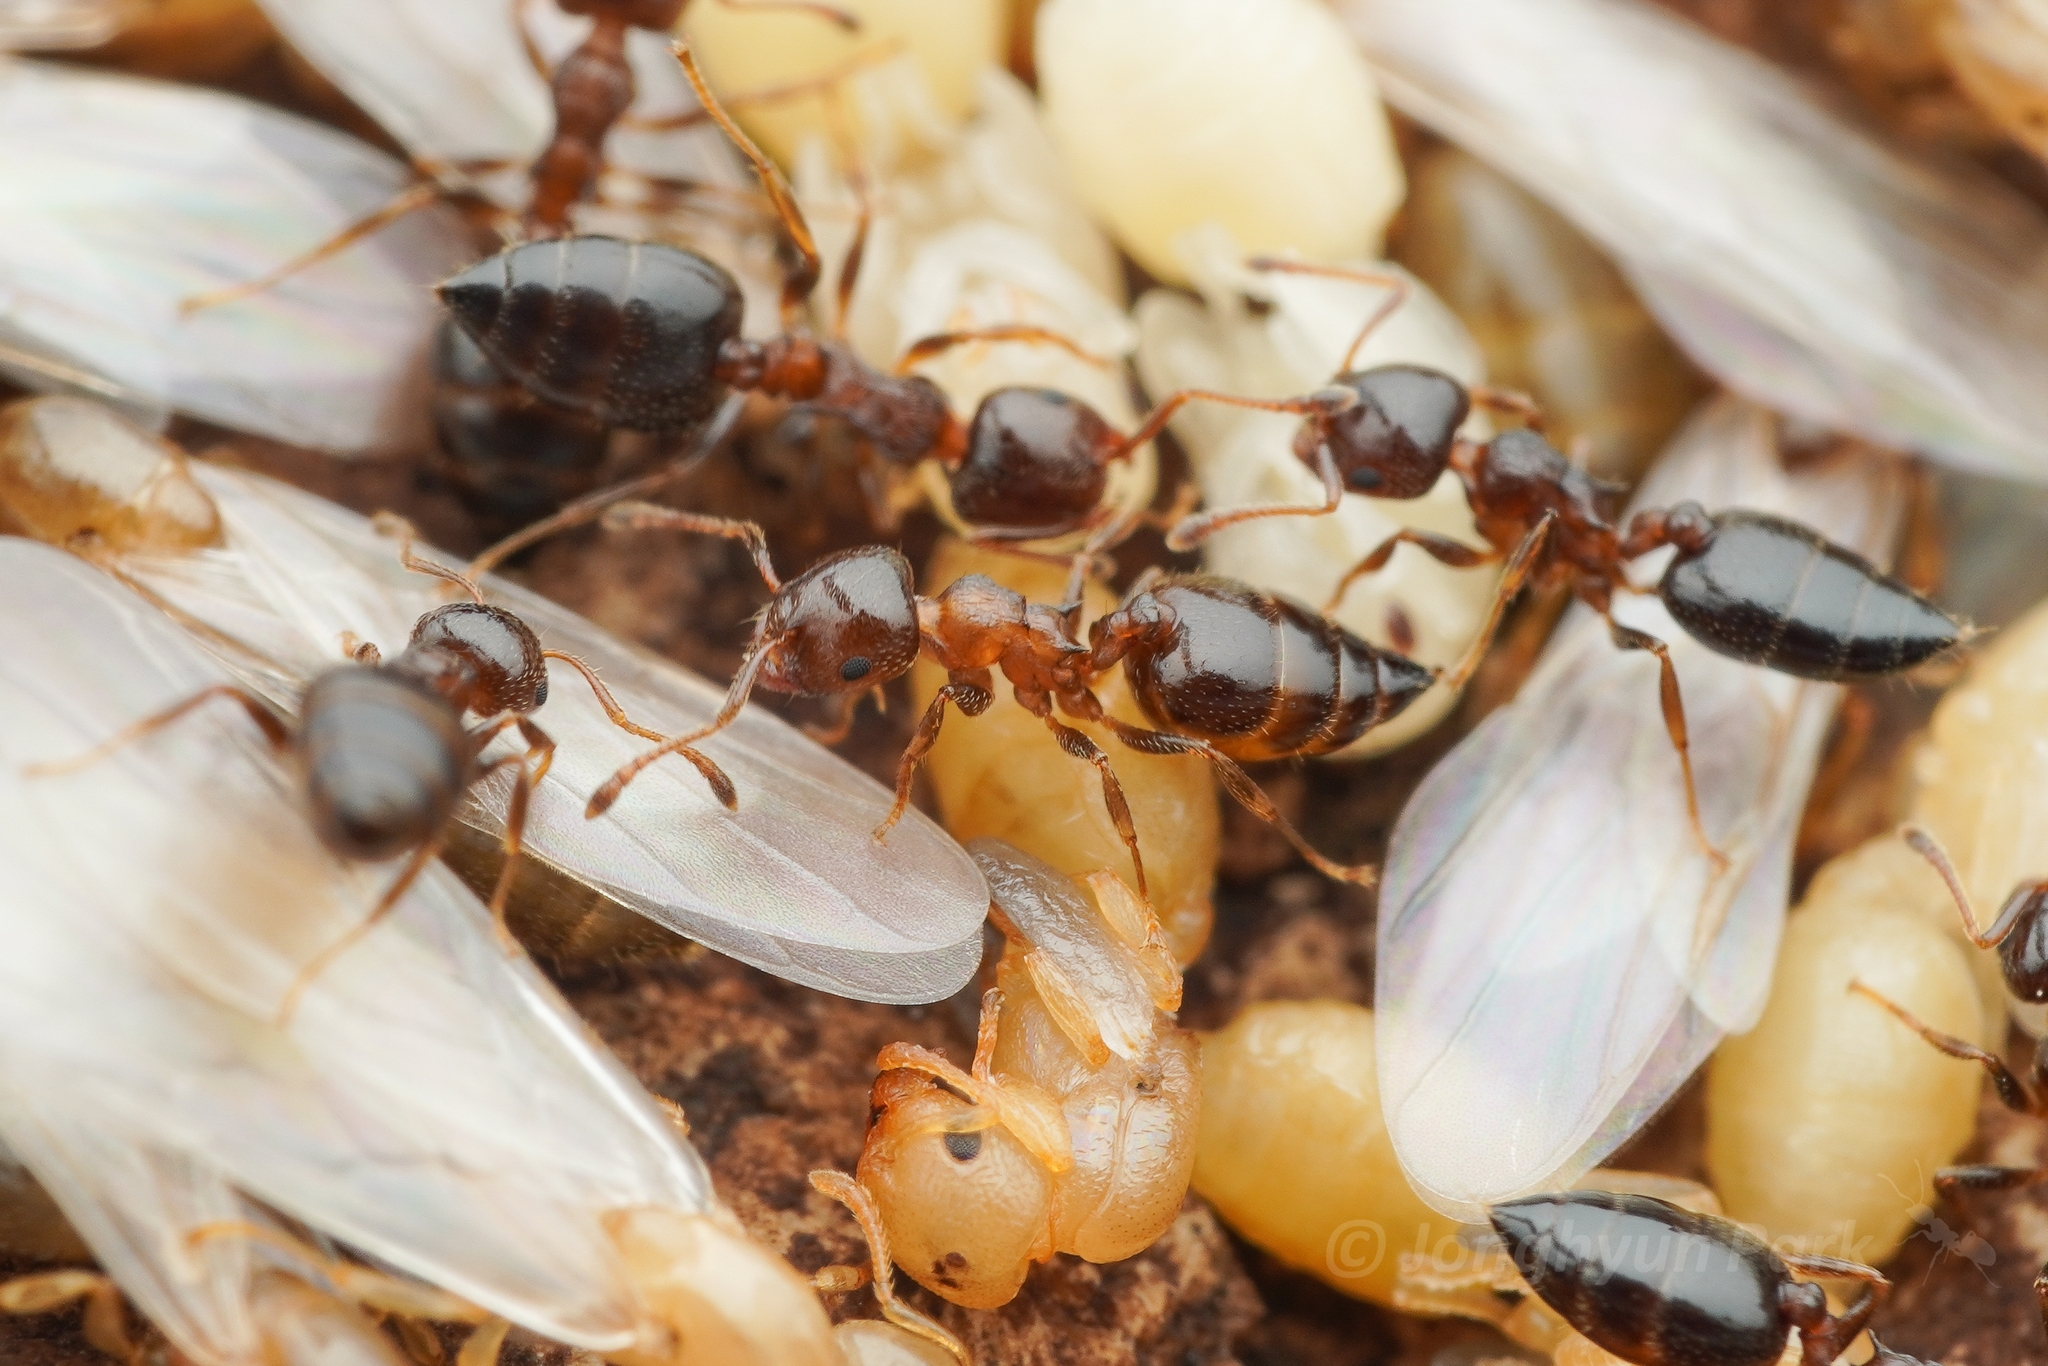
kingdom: Animalia
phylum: Arthropoda
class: Insecta
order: Hymenoptera
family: Formicidae
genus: Crematogaster
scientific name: Crematogaster
